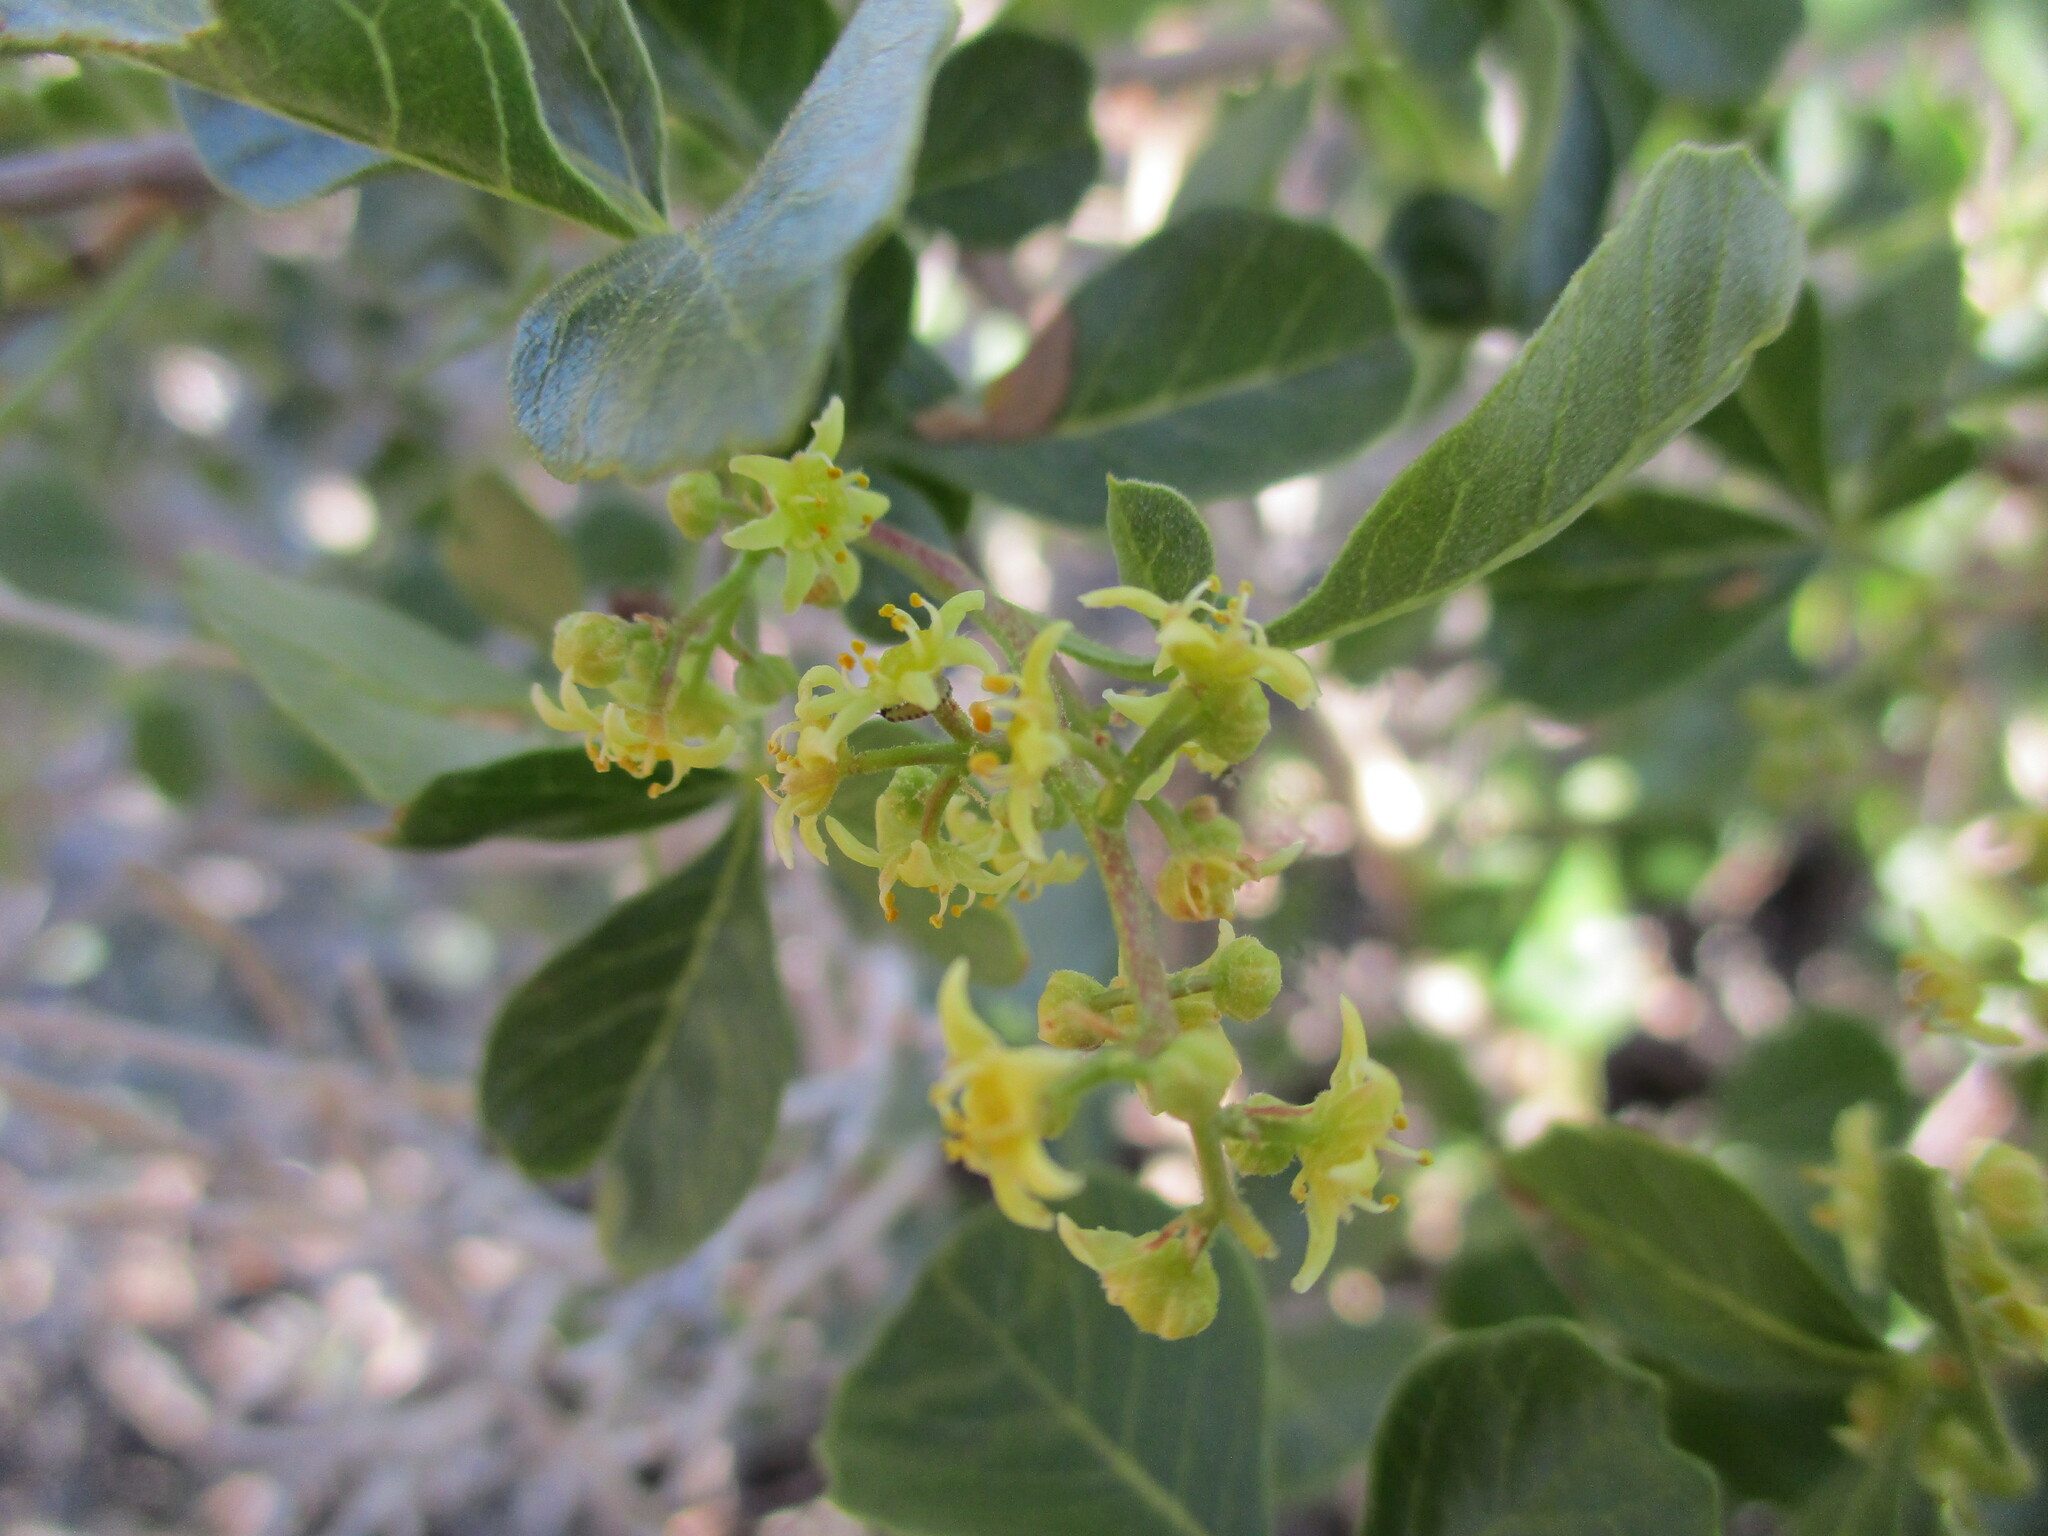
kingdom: Plantae
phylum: Tracheophyta
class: Magnoliopsida
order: Sapindales
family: Anacardiaceae
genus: Searsia
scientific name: Searsia populifolia
